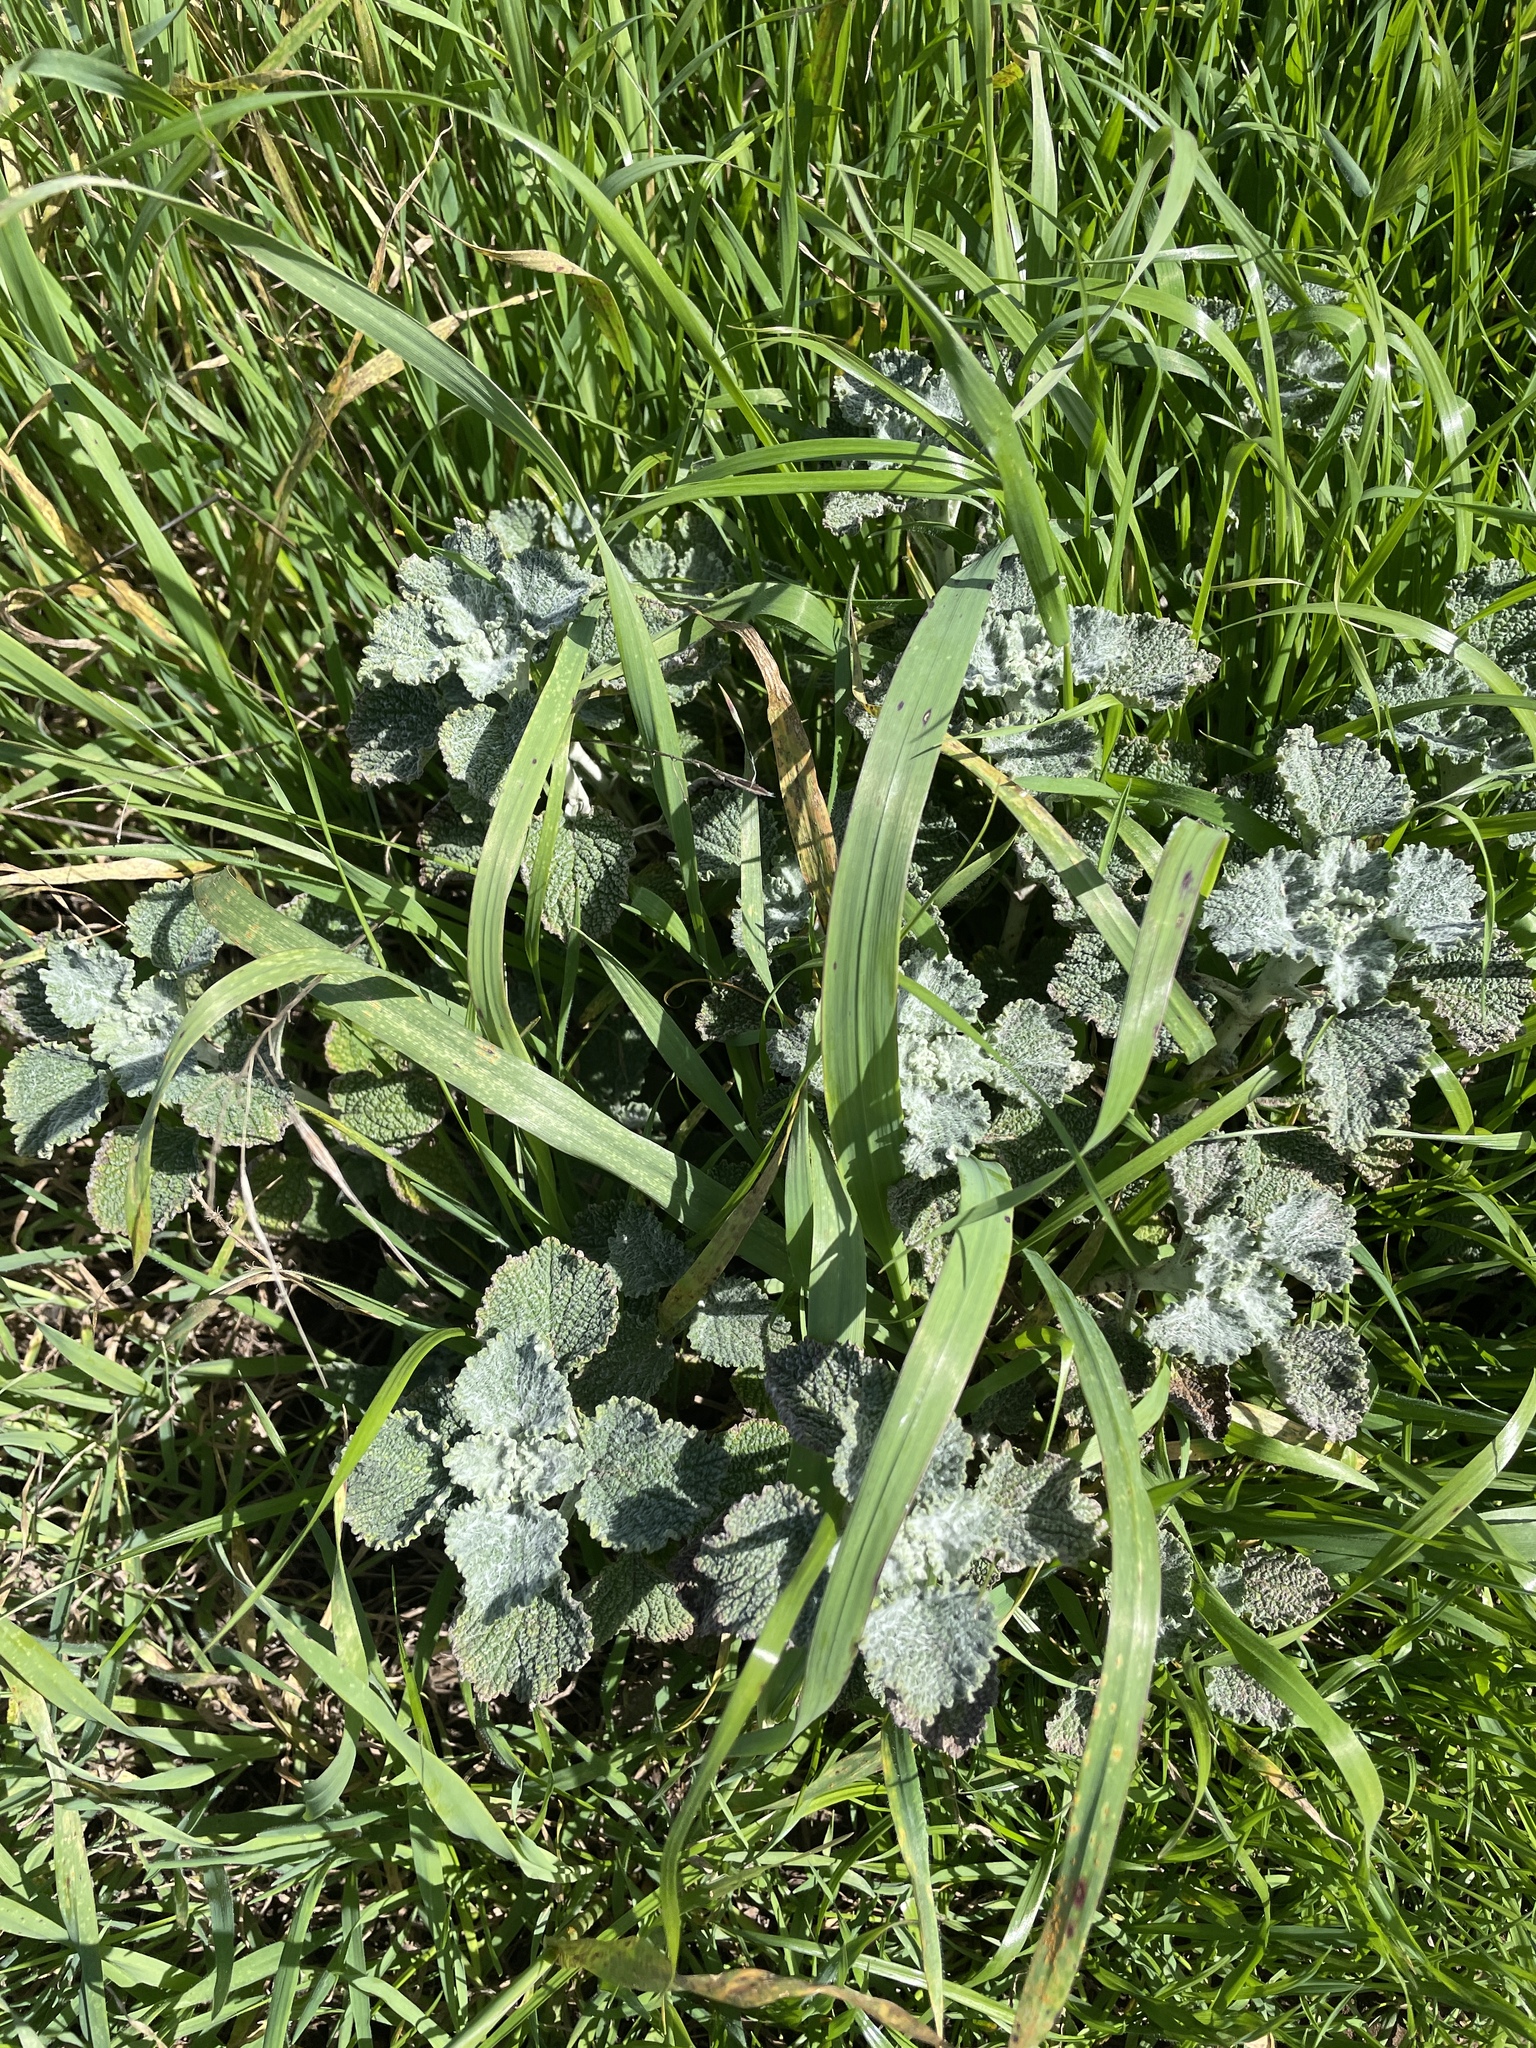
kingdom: Plantae
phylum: Tracheophyta
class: Magnoliopsida
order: Lamiales
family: Lamiaceae
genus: Marrubium
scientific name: Marrubium vulgare
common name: Horehound
